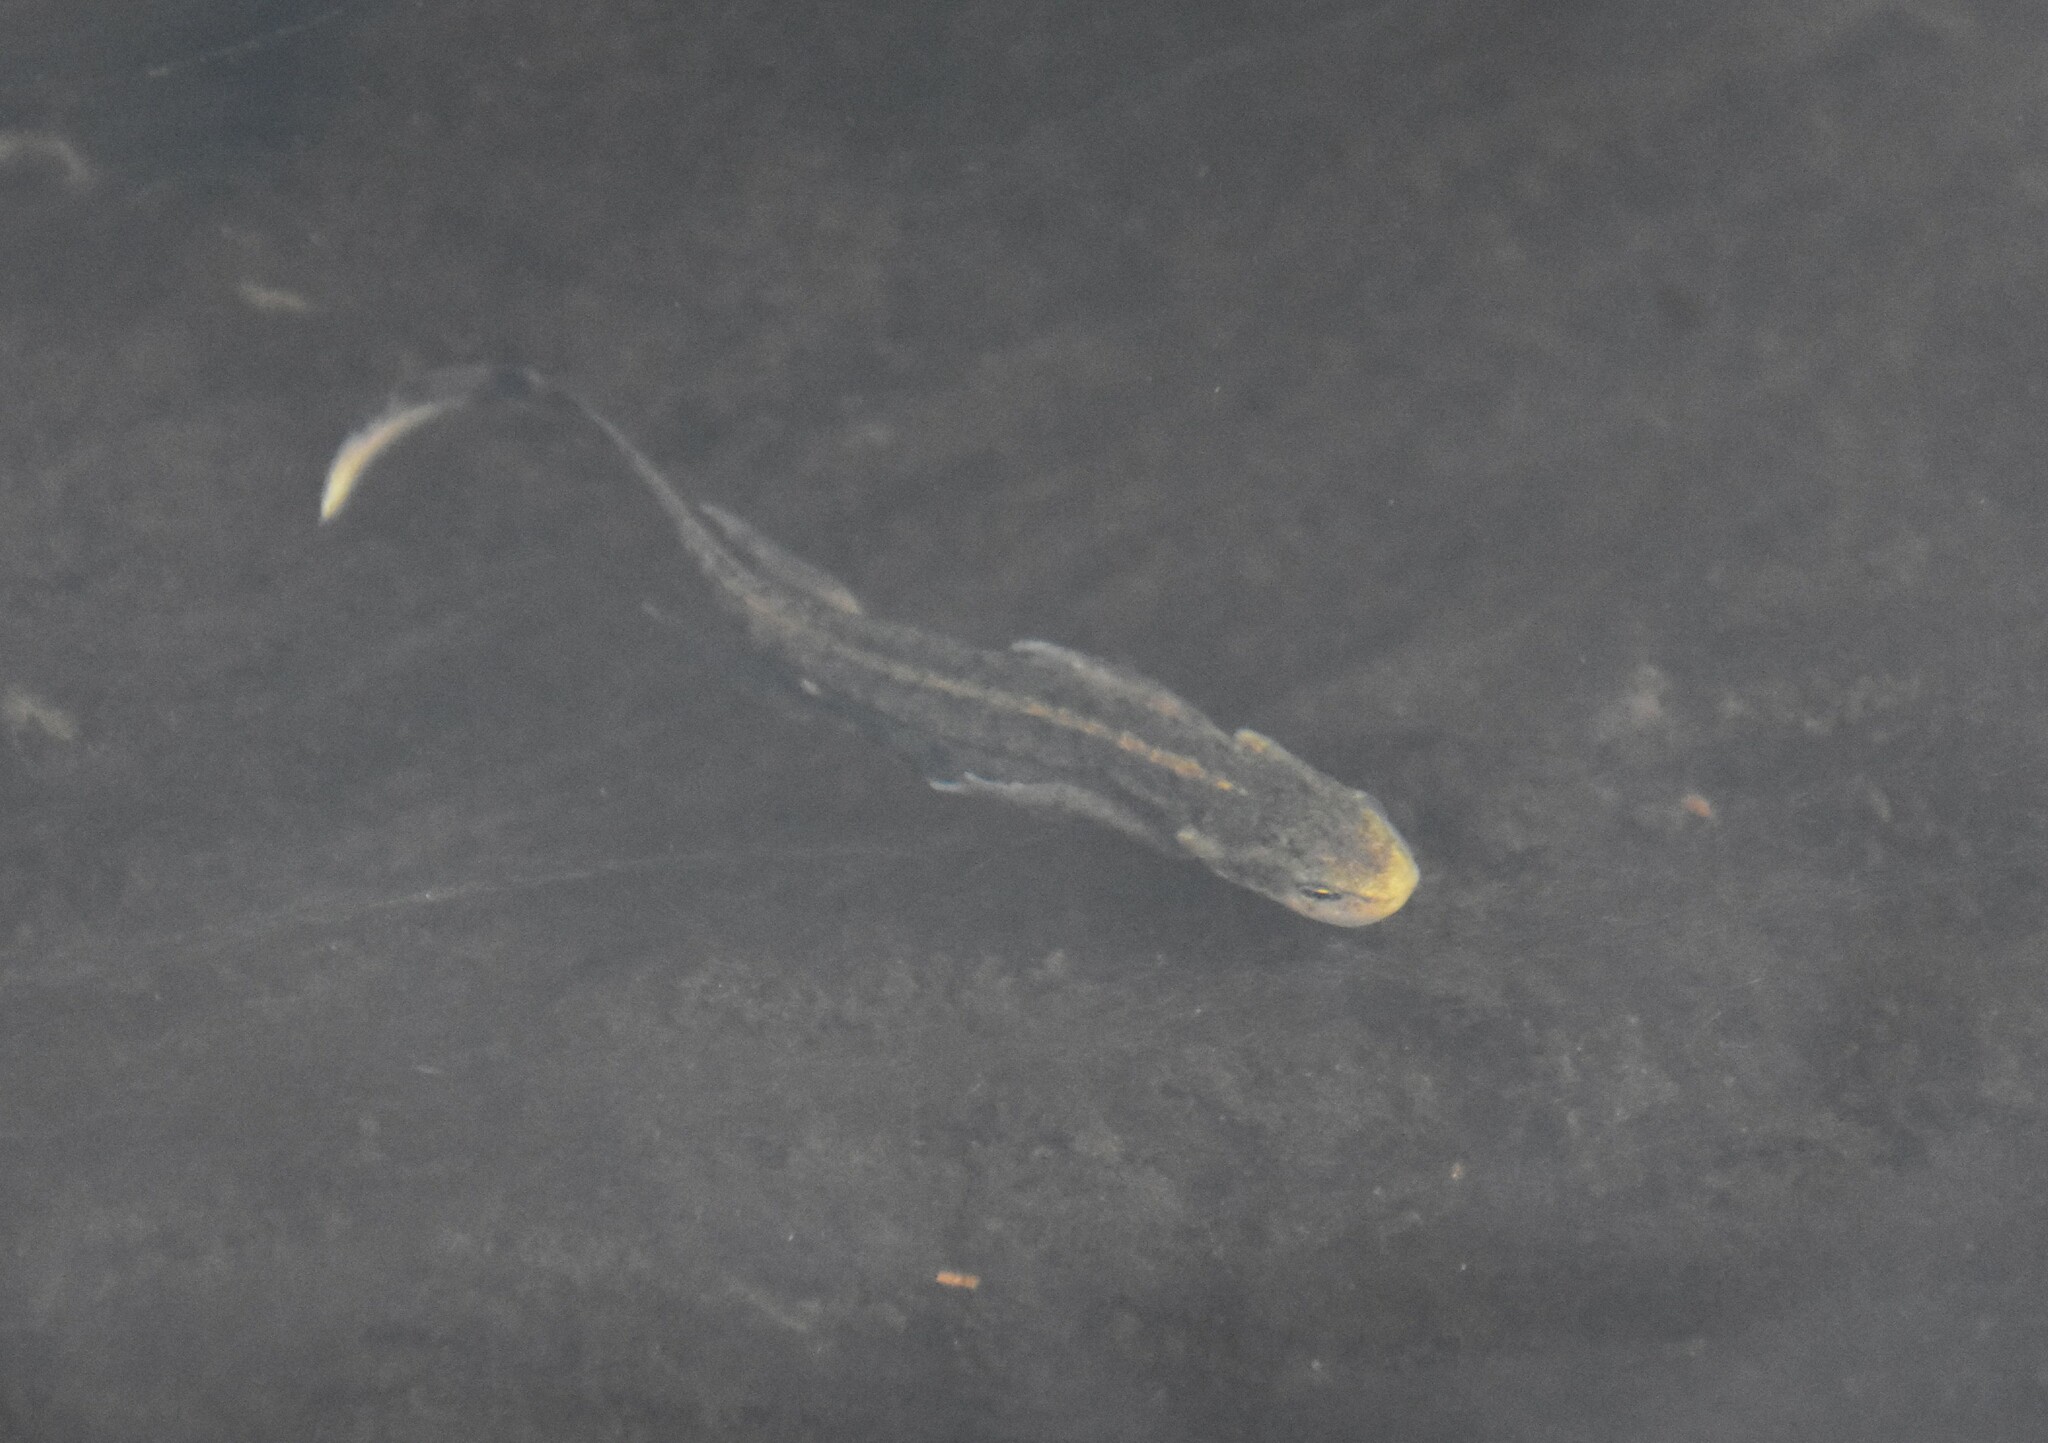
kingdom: Animalia
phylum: Chordata
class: Amphibia
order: Caudata
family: Salamandridae
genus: Lissotriton
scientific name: Lissotriton boscai
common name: Bosca's newt
